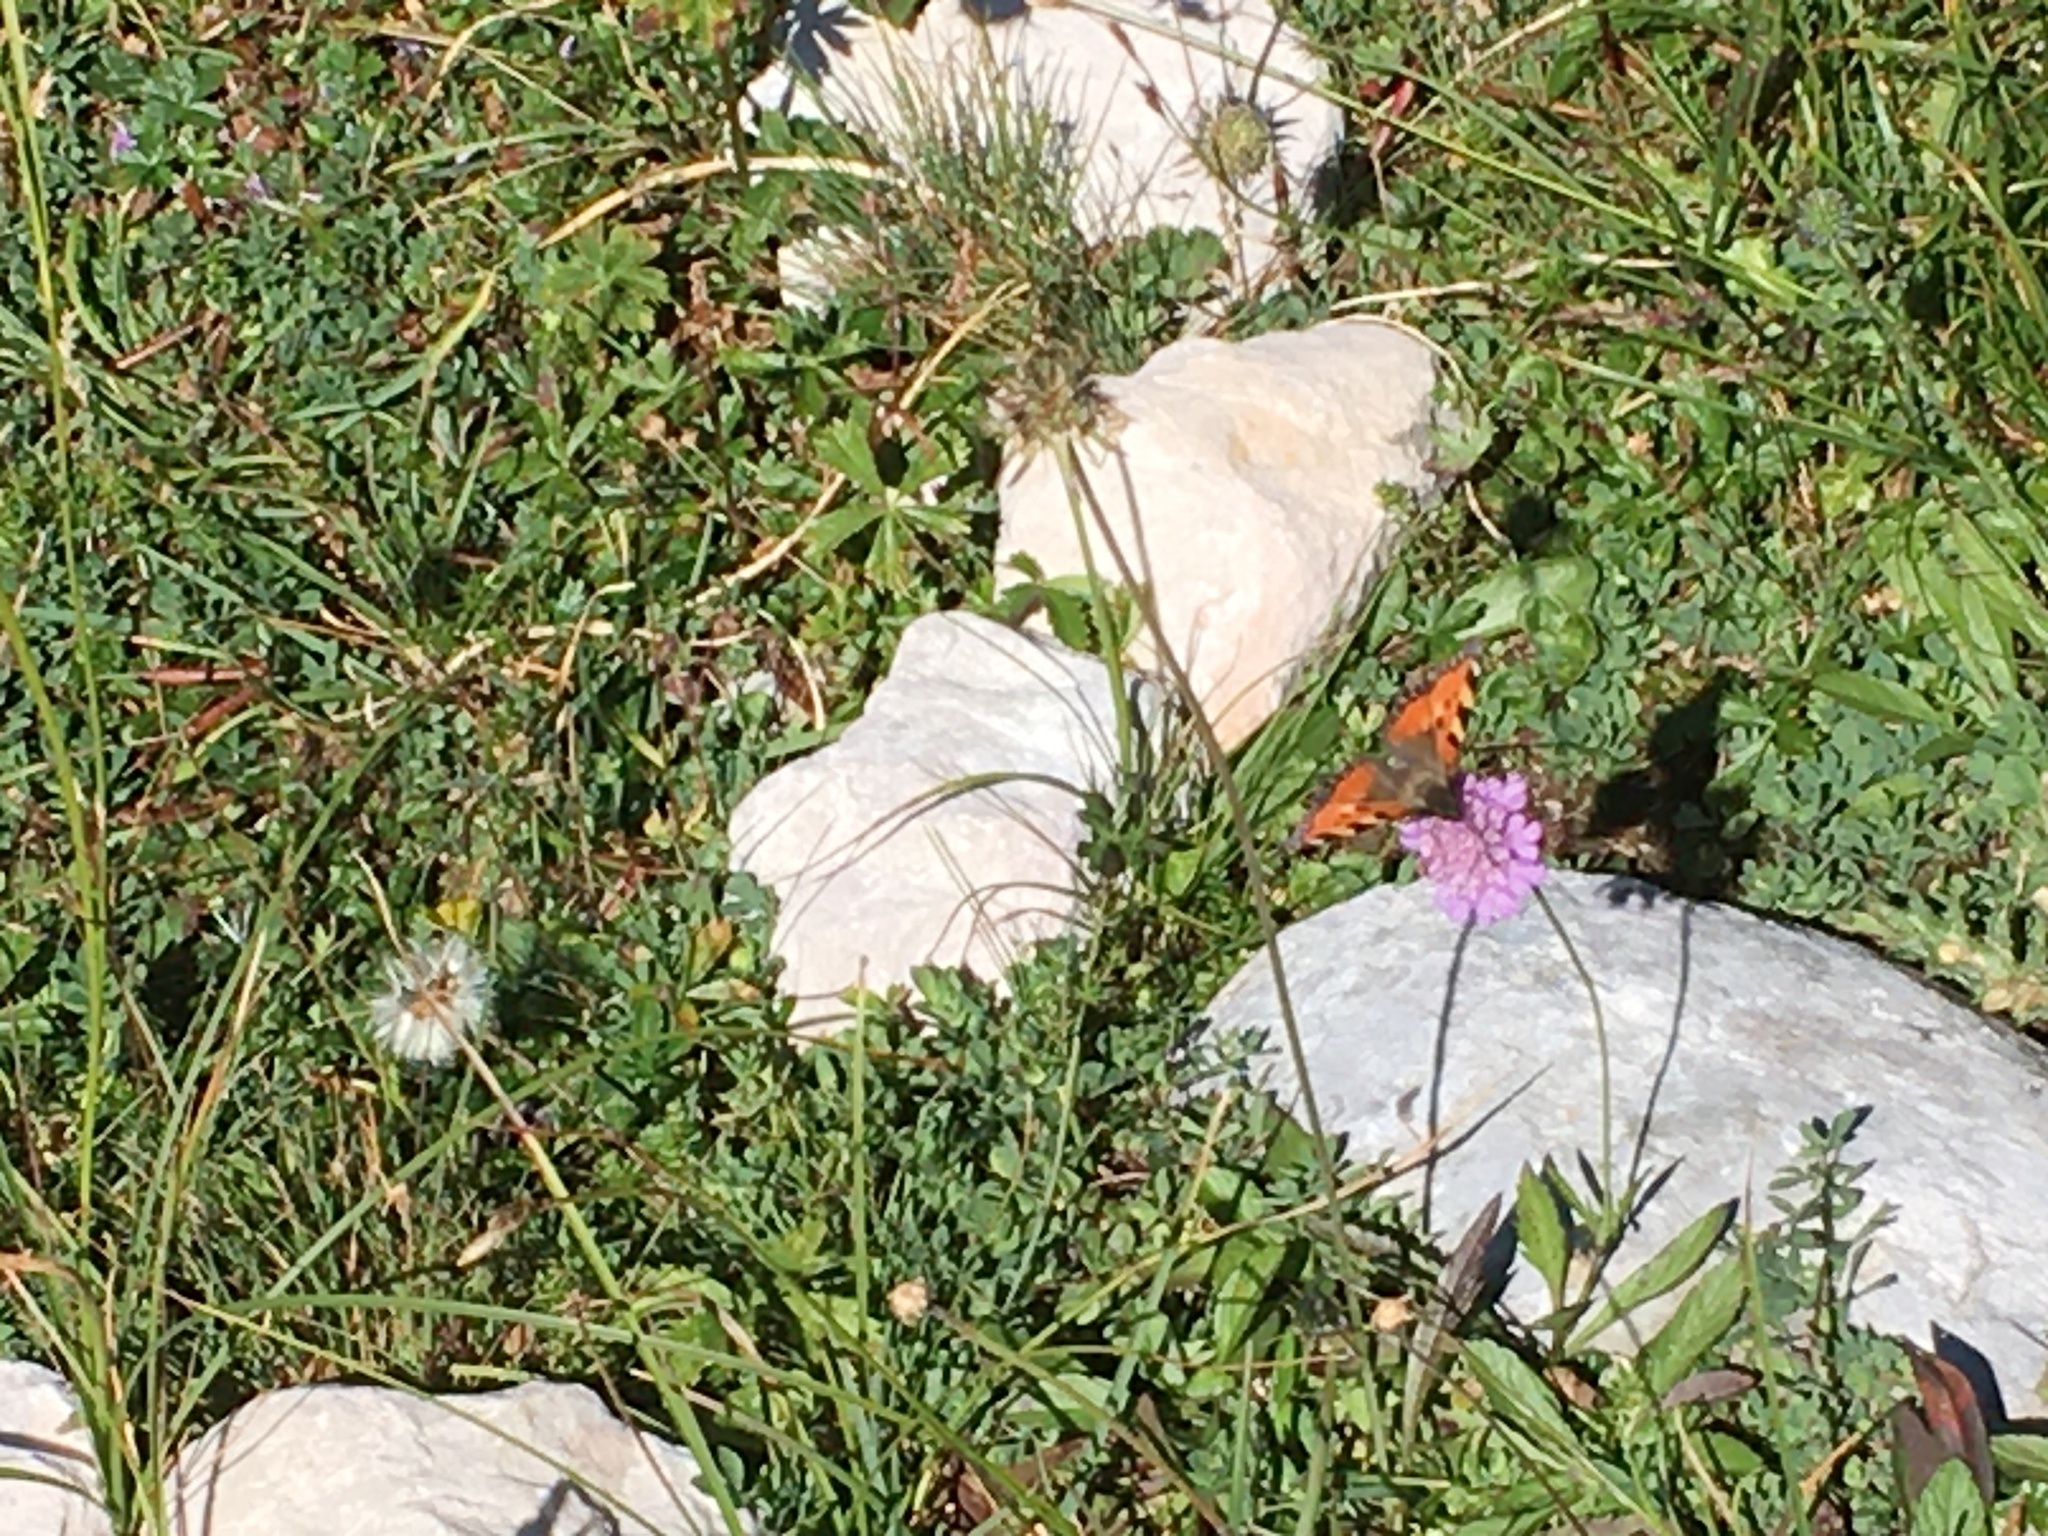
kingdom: Animalia
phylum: Arthropoda
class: Insecta
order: Lepidoptera
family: Nymphalidae
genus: Aglais
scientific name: Aglais urticae
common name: Small tortoiseshell
